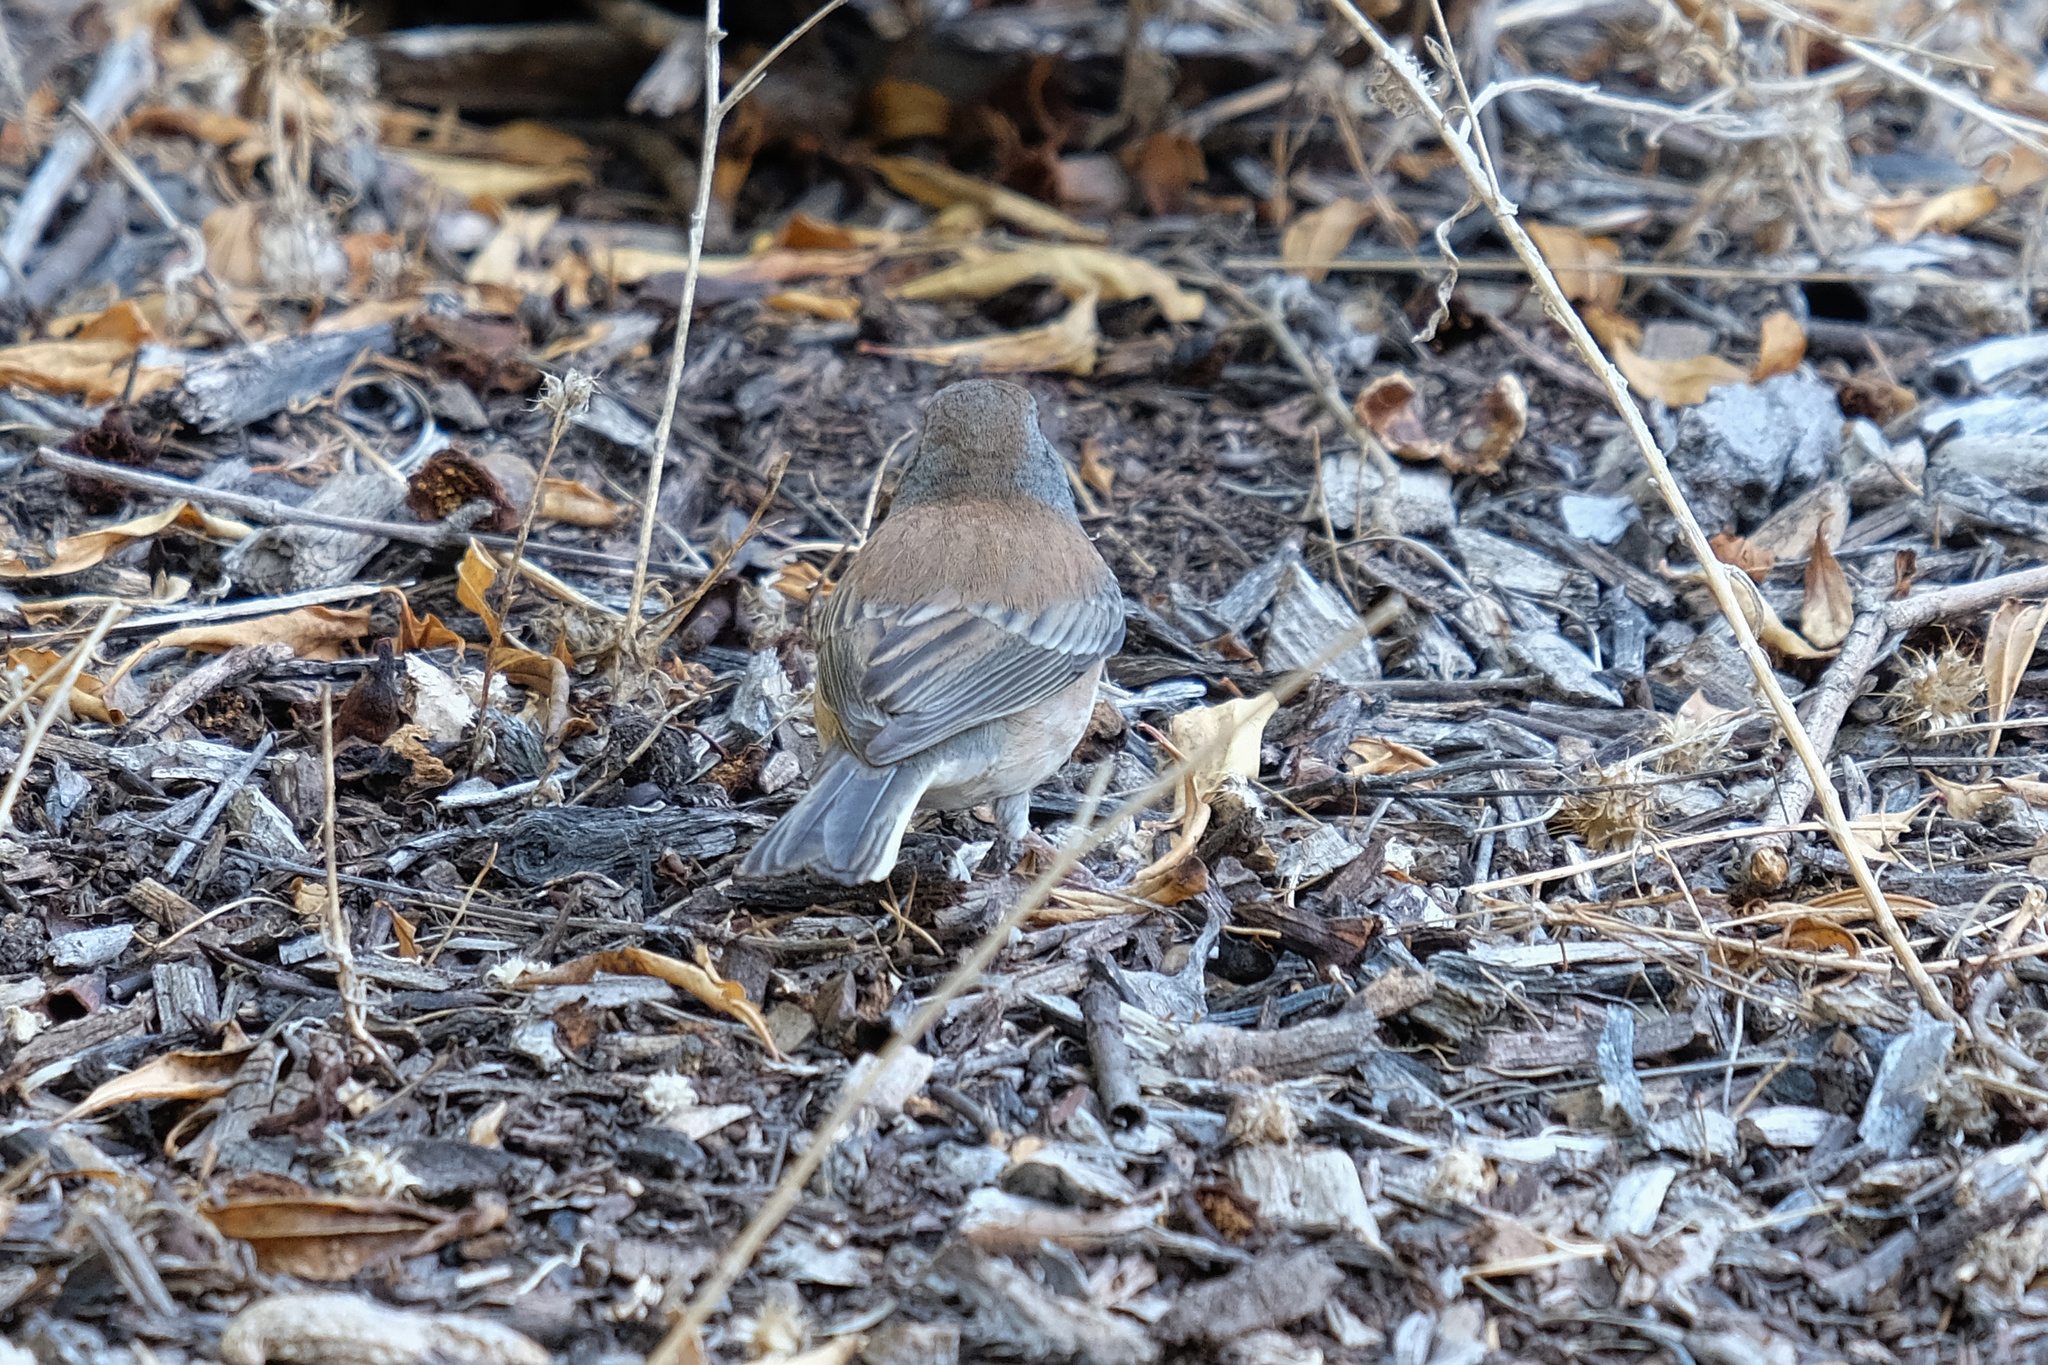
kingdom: Animalia
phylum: Chordata
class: Aves
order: Passeriformes
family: Passerellidae
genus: Junco
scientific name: Junco hyemalis
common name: Dark-eyed junco
